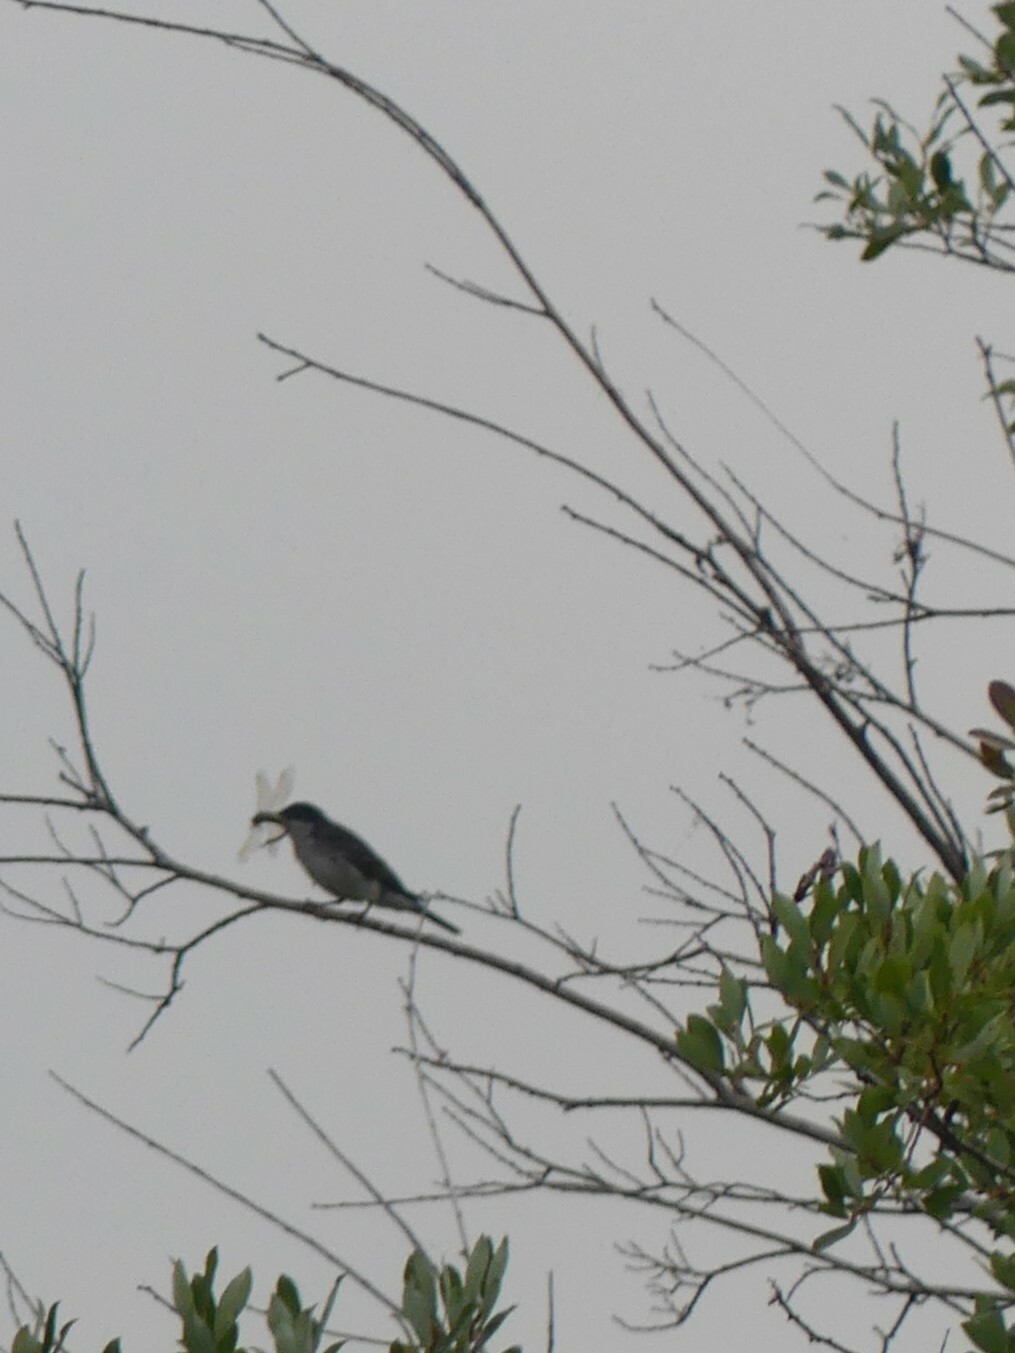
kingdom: Animalia
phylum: Chordata
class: Aves
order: Passeriformes
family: Tyrannidae
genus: Tyrannus
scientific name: Tyrannus tyrannus
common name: Eastern kingbird
